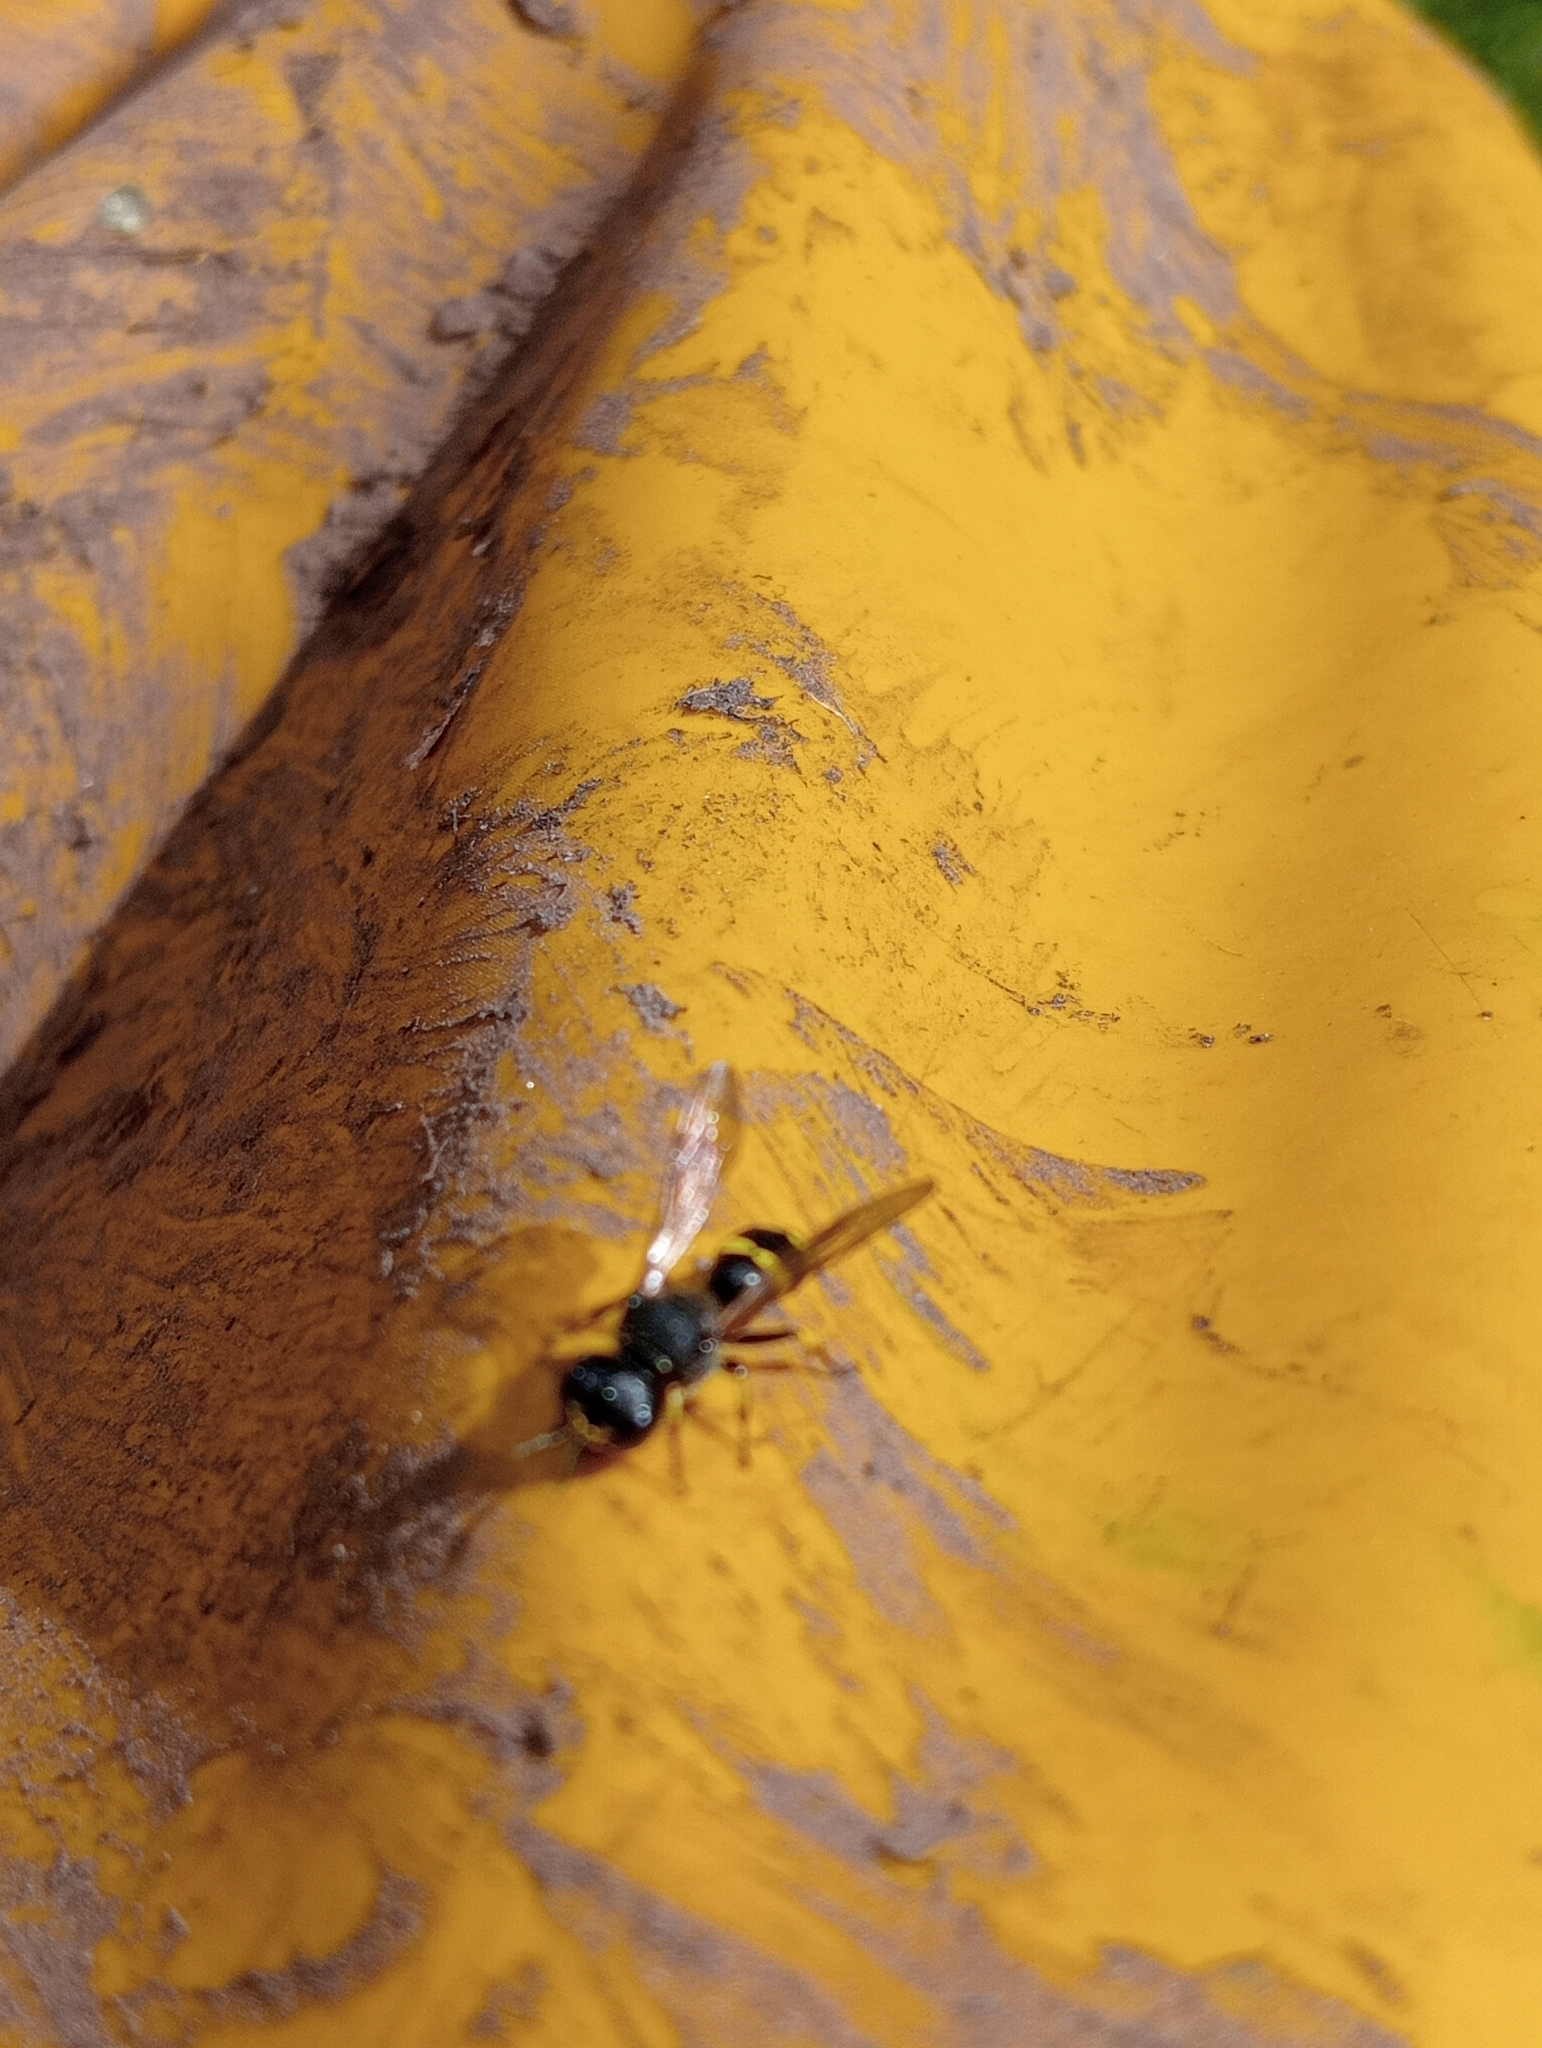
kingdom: Animalia
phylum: Arthropoda
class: Insecta
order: Hymenoptera
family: Crabronidae
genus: Ectemnius
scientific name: Ectemnius continuus
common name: Common ectemnius
